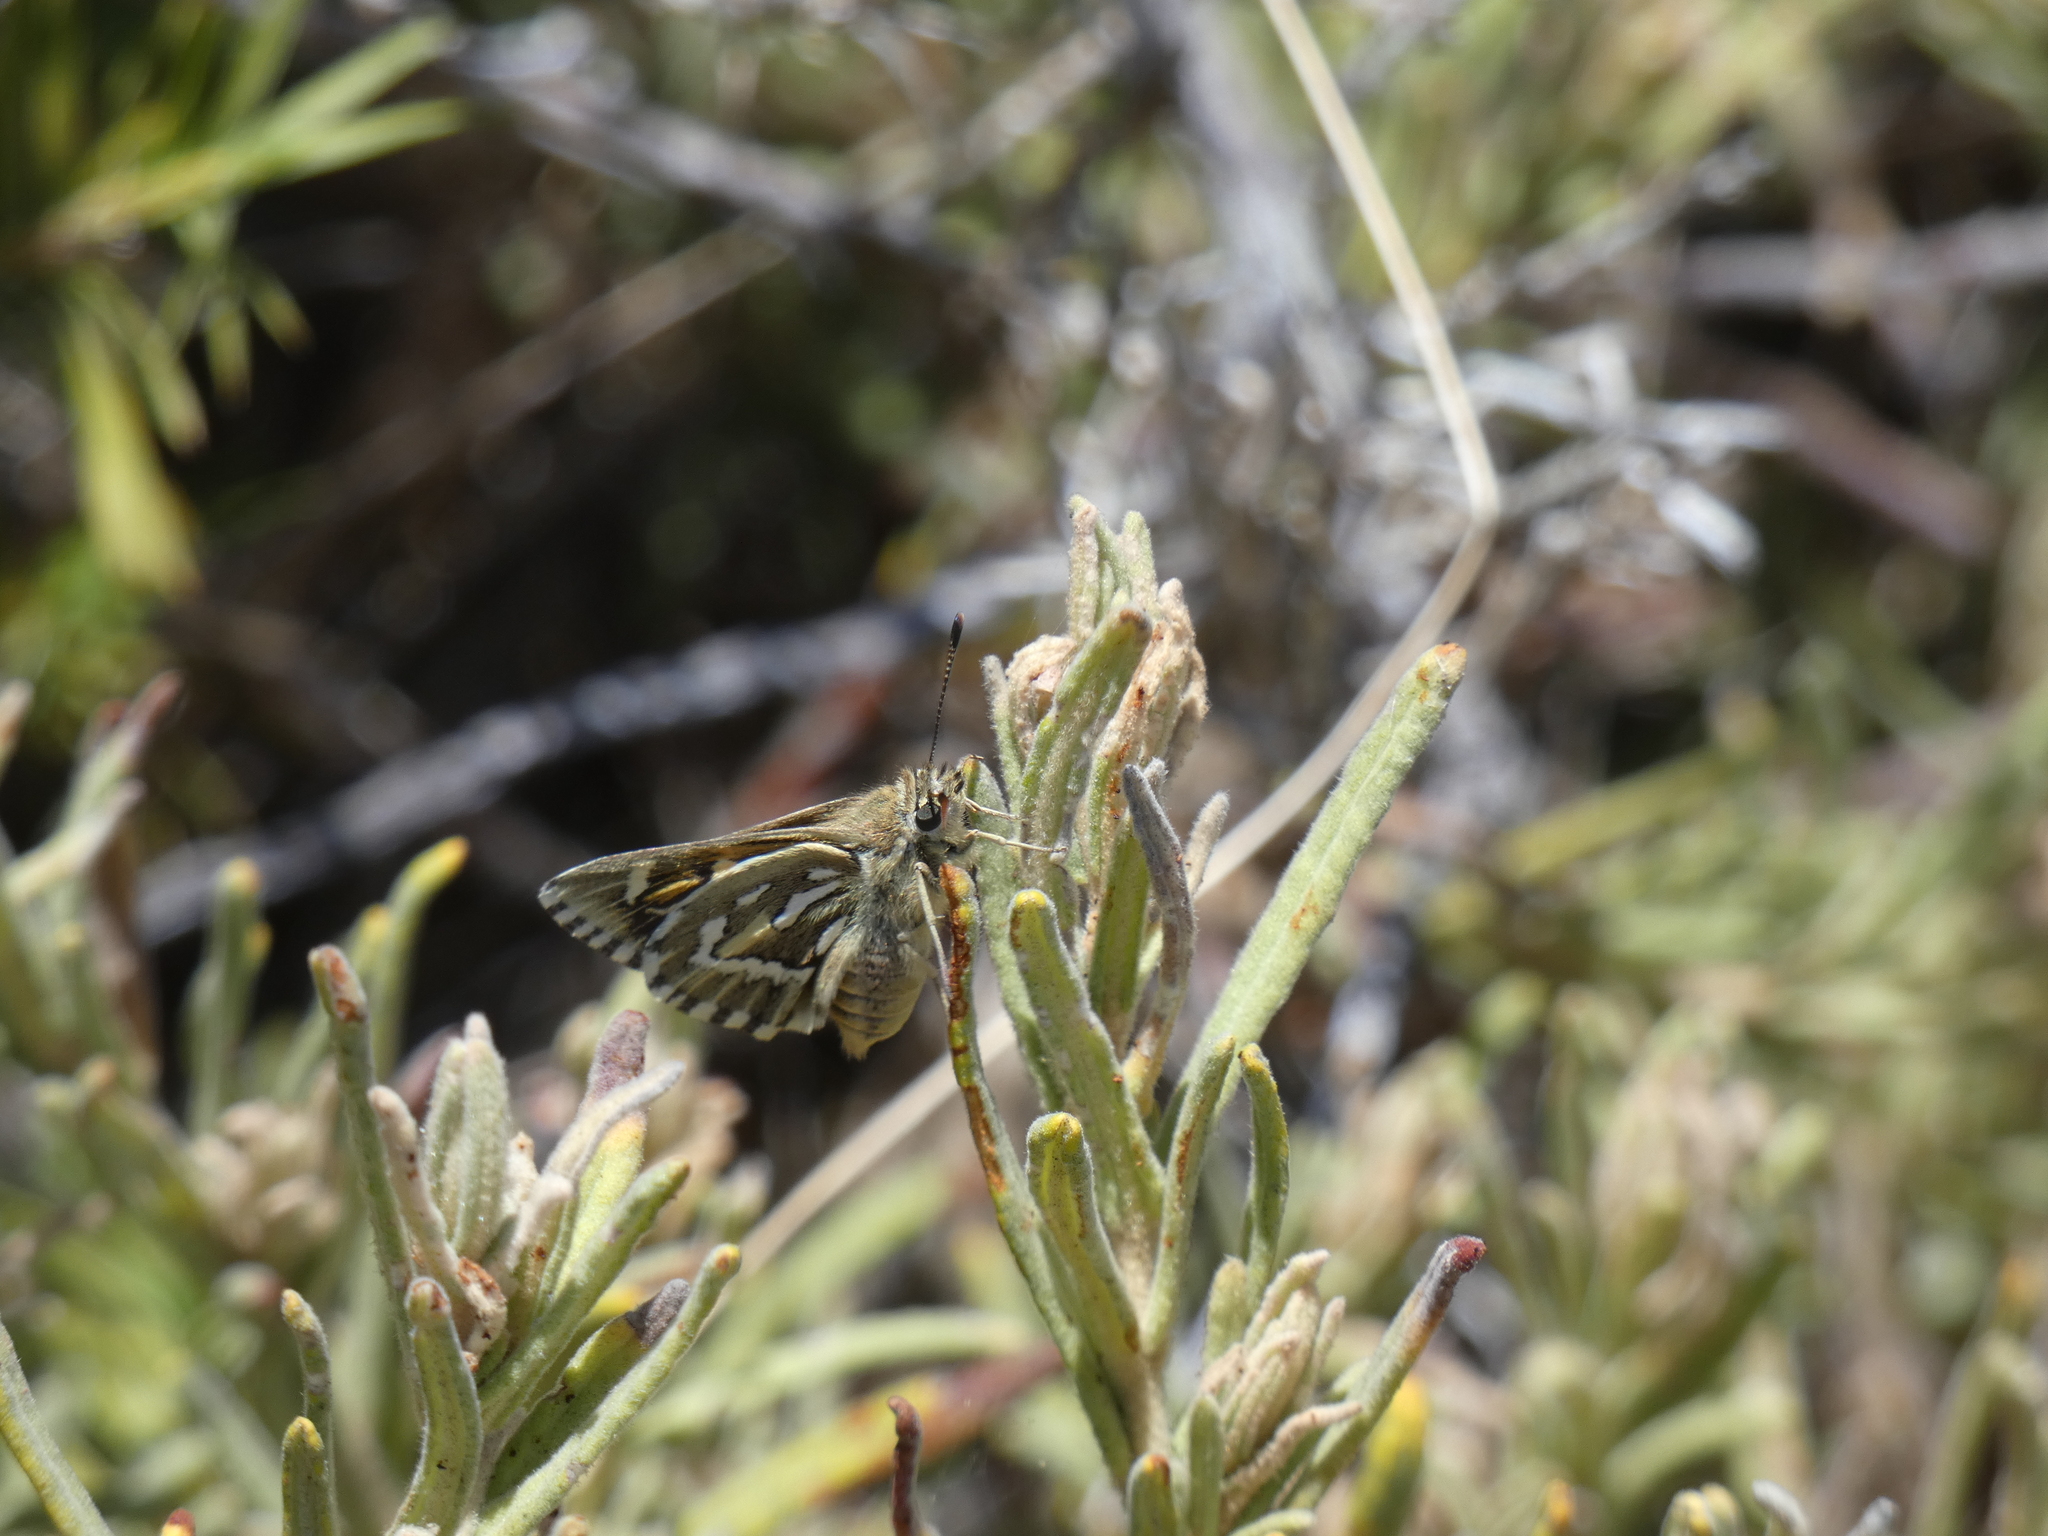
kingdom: Animalia
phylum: Arthropoda
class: Insecta
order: Lepidoptera
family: Hesperiidae
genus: Trapezites
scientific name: Trapezites argenteoornatus
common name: Silver-spotted ochre
